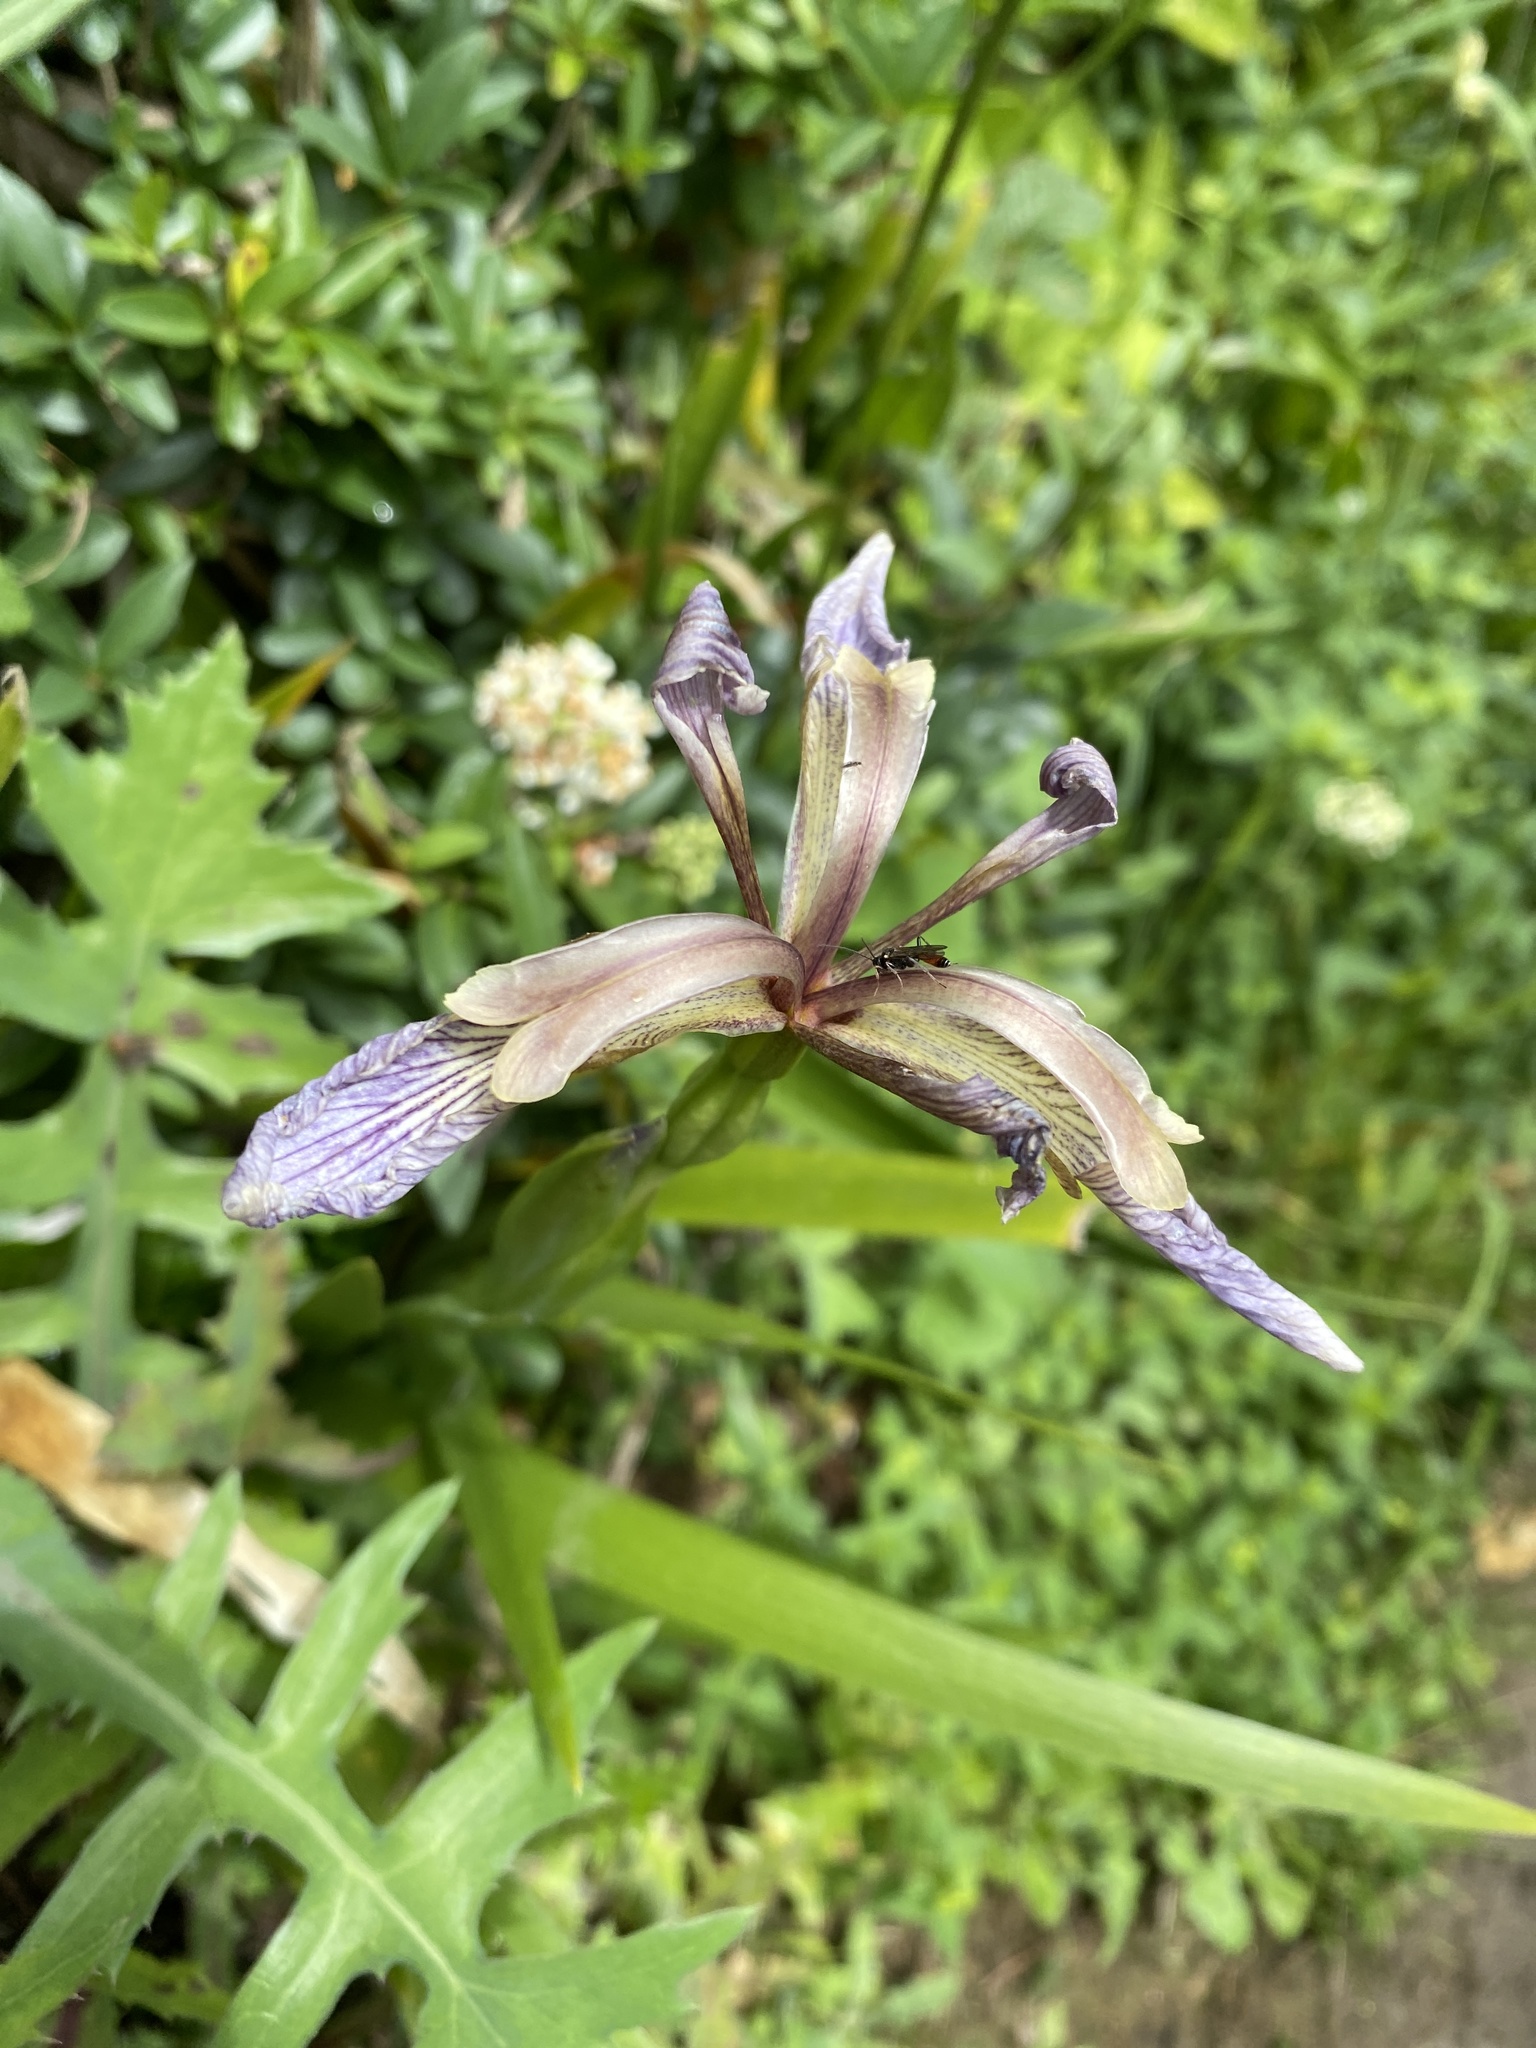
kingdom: Plantae
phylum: Tracheophyta
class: Liliopsida
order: Asparagales
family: Iridaceae
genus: Iris
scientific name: Iris foetidissima
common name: Stinking iris
